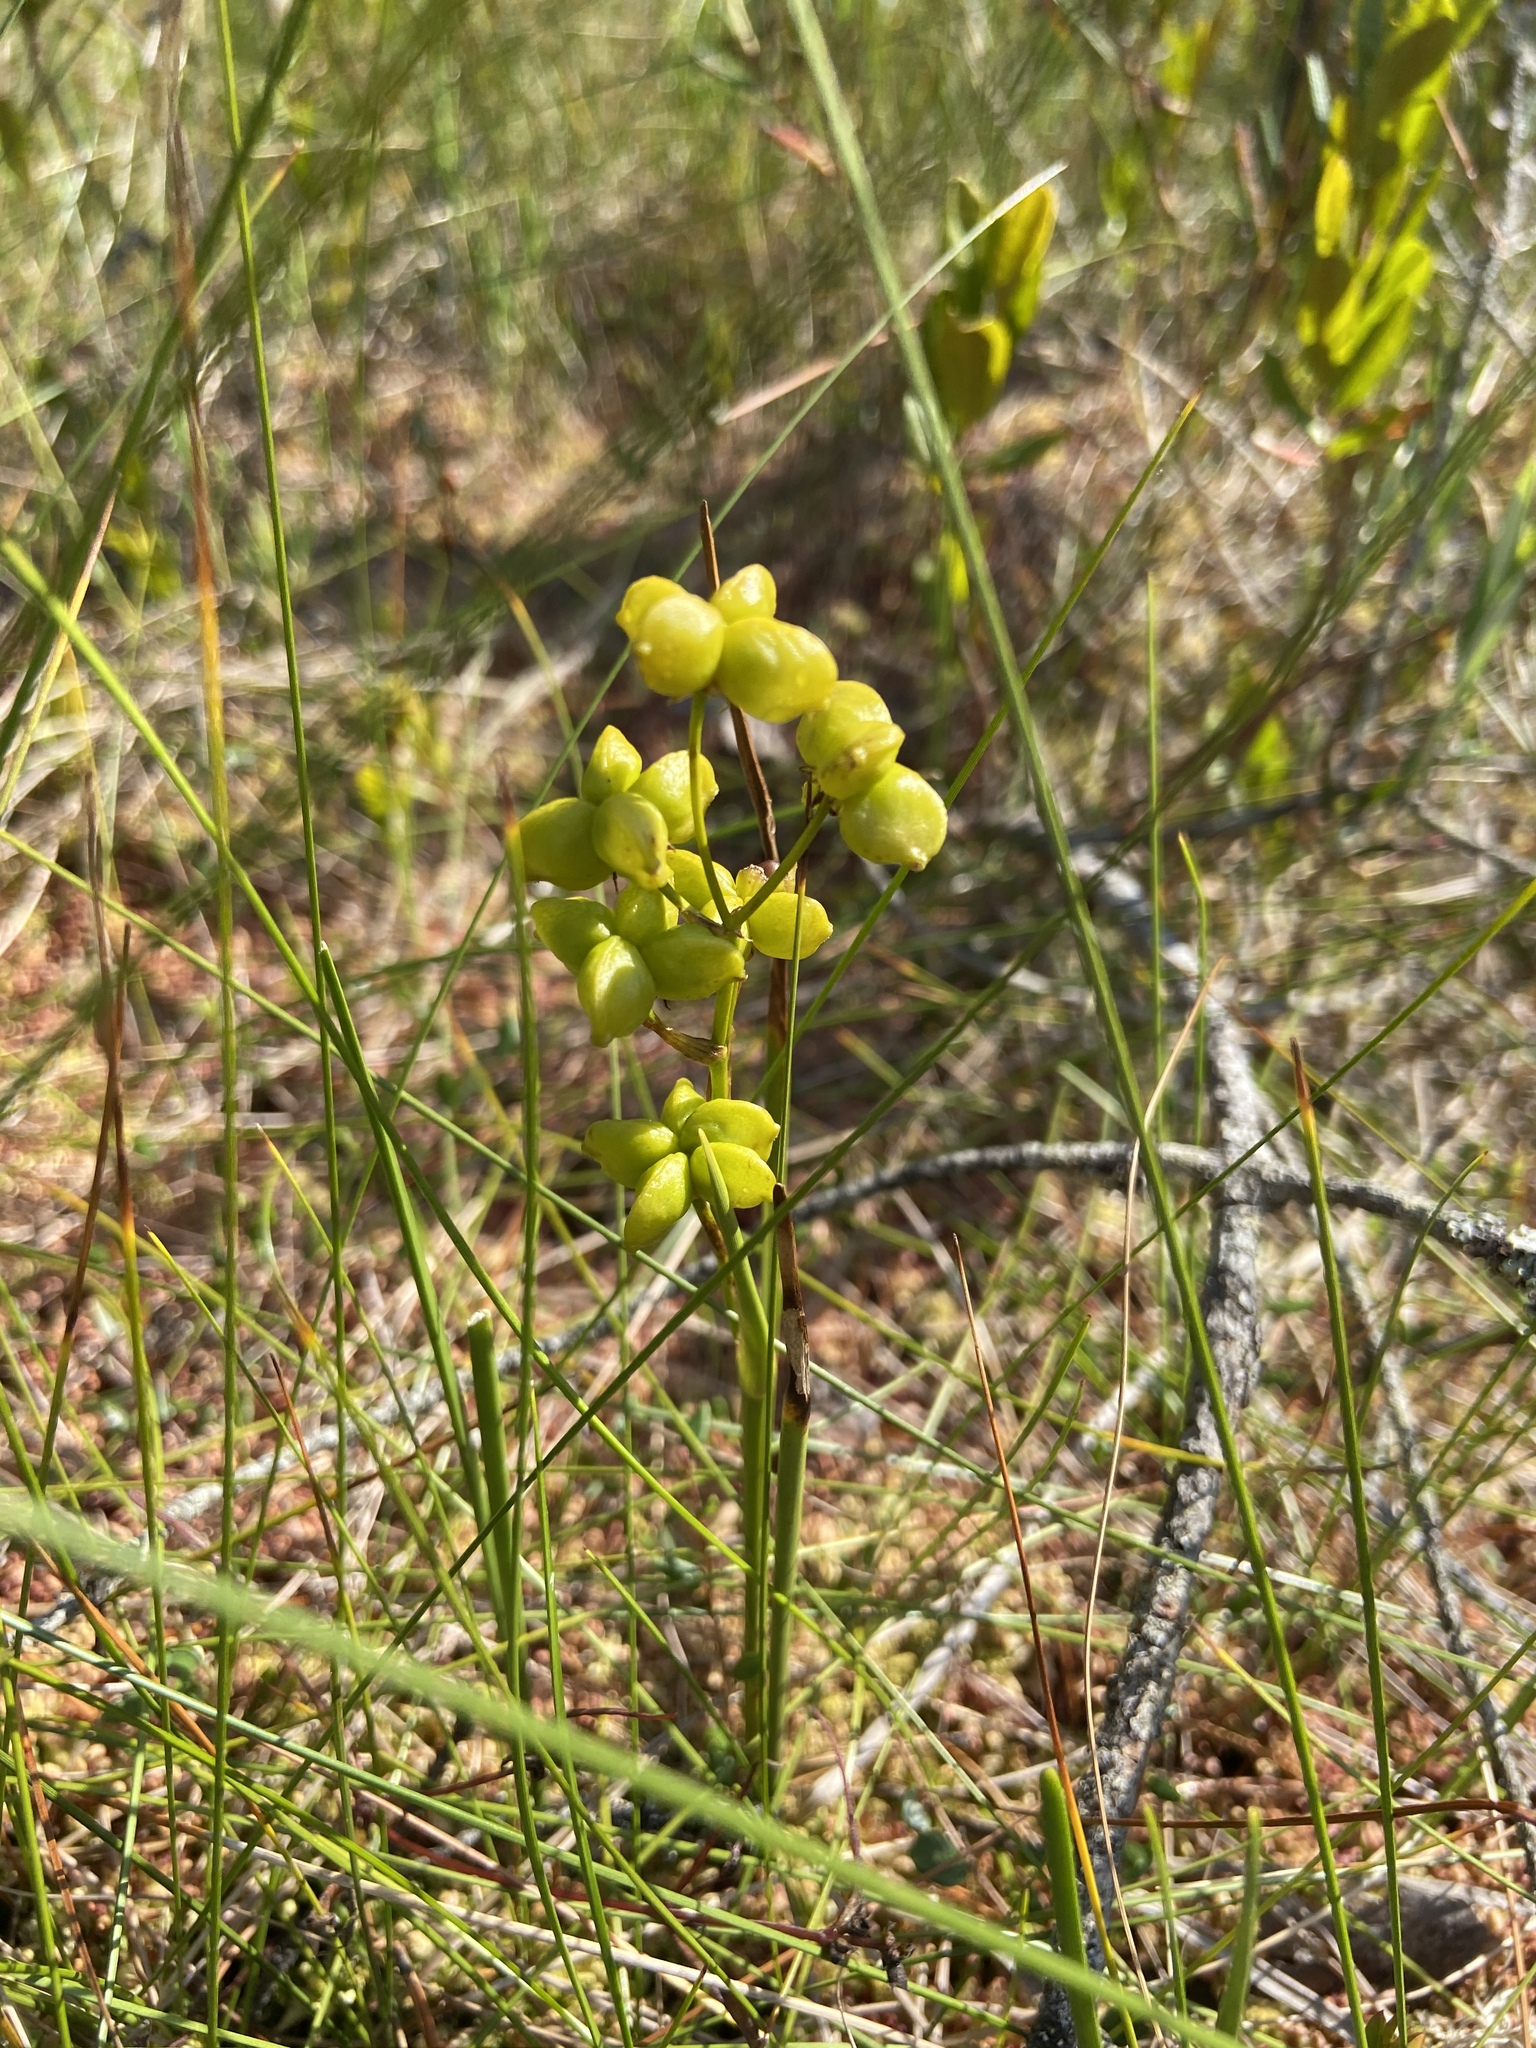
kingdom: Plantae
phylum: Tracheophyta
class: Liliopsida
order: Alismatales
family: Scheuchzeriaceae
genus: Scheuchzeria
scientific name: Scheuchzeria palustris
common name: Rannoch-rush
